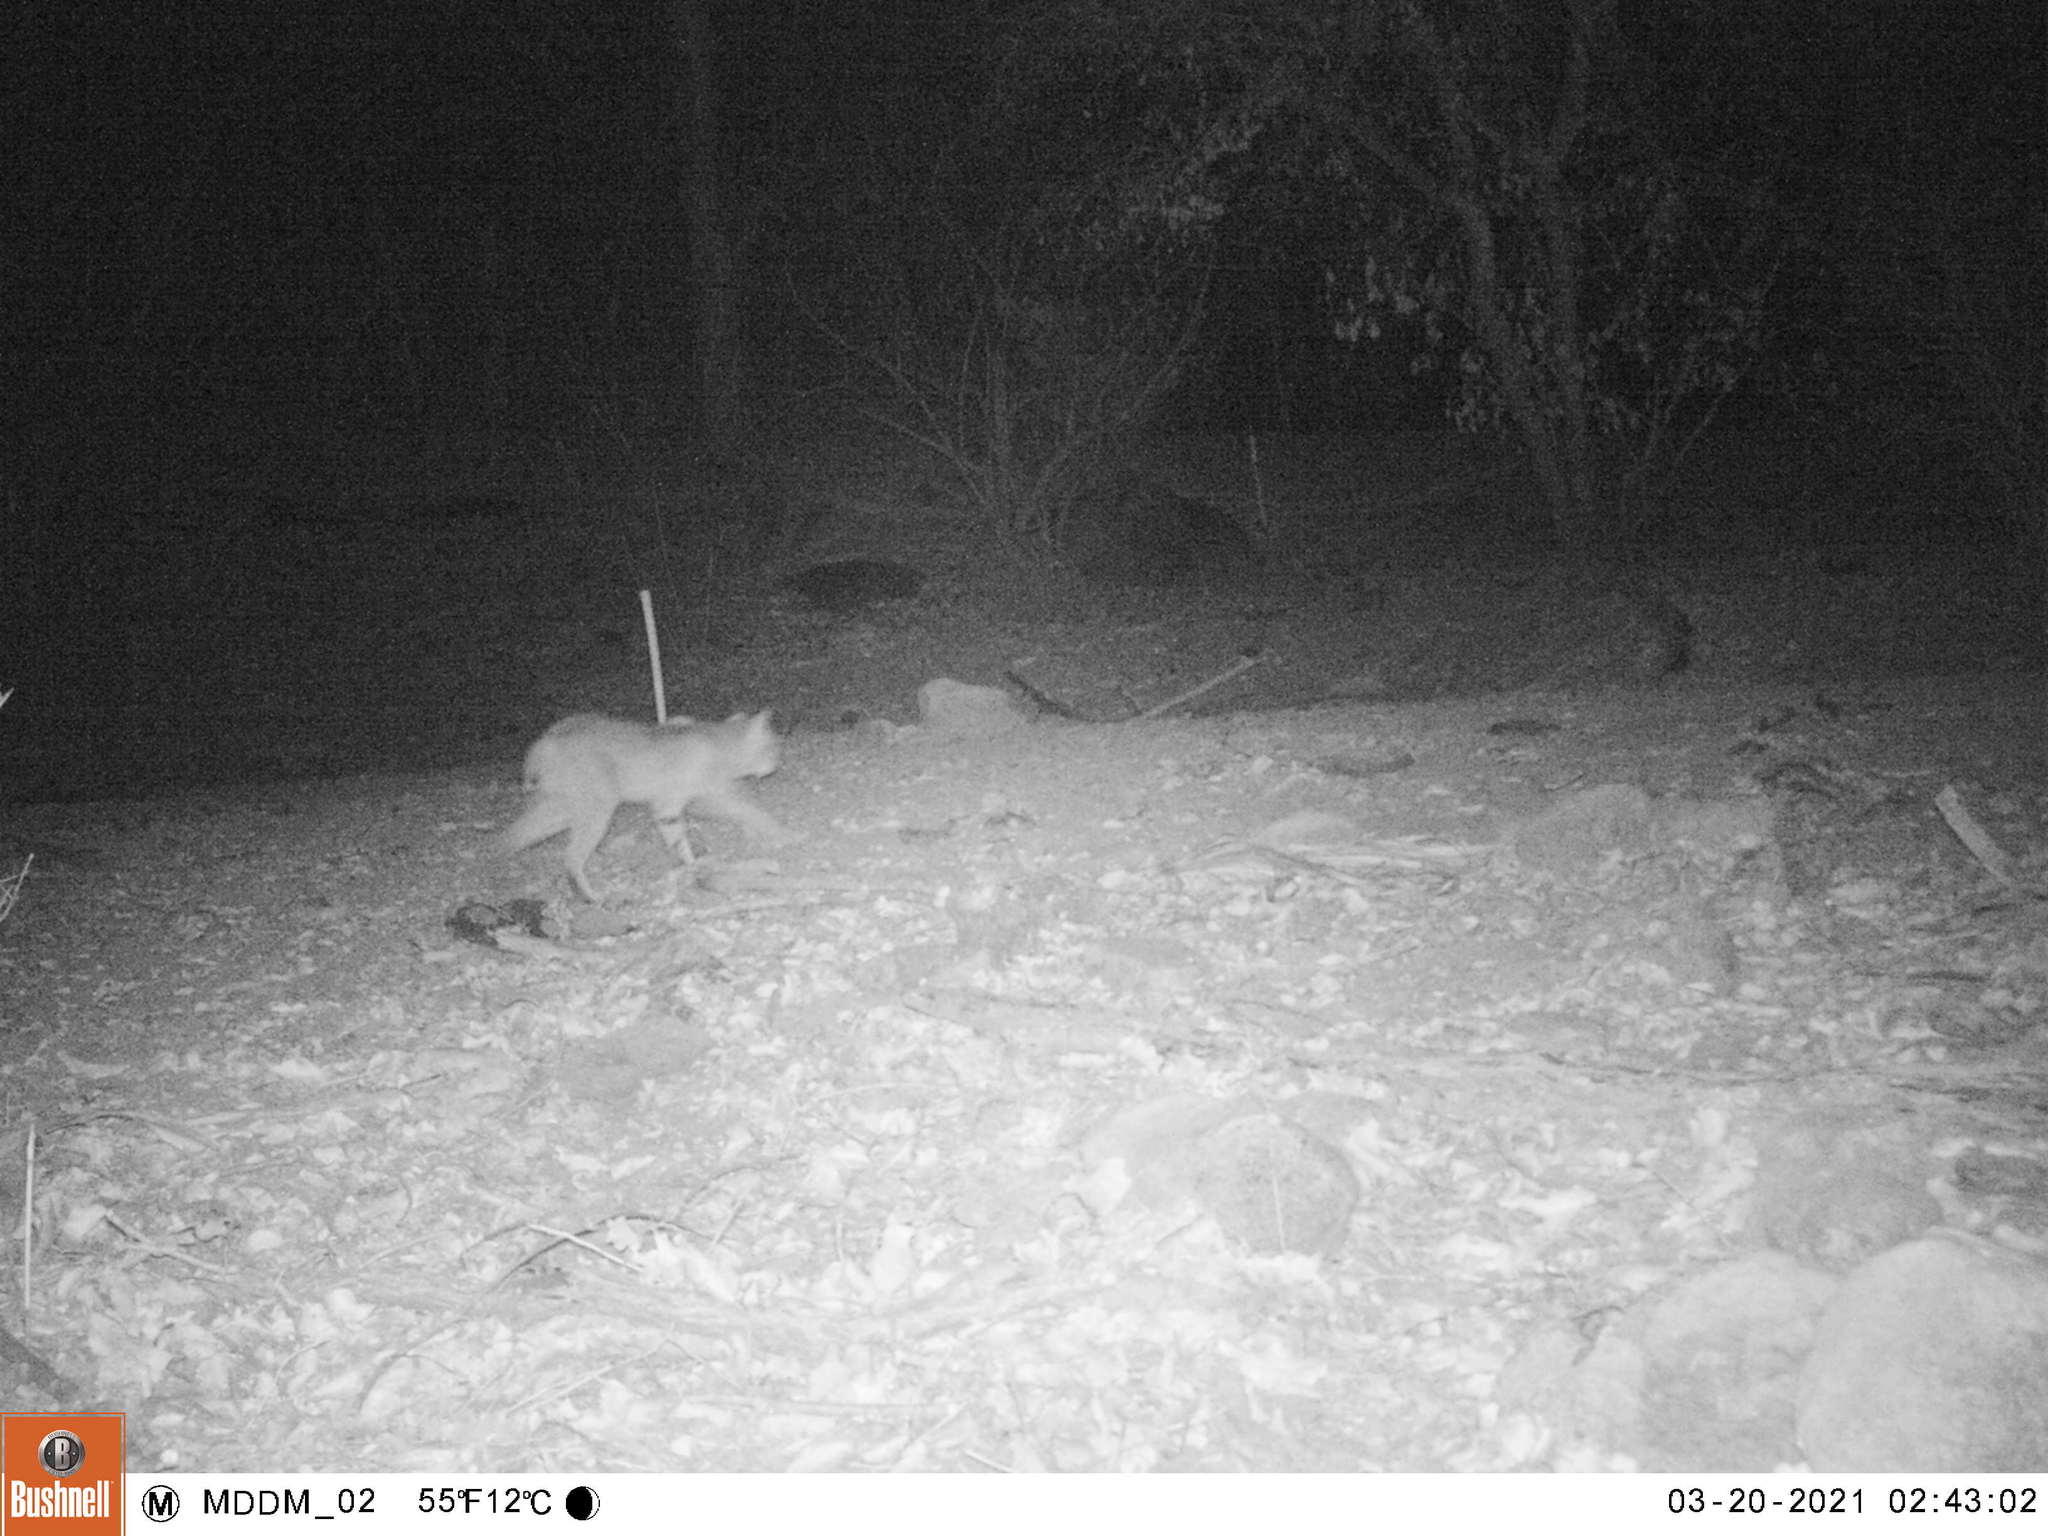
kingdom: Animalia
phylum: Chordata
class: Mammalia
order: Carnivora
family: Felidae
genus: Lynx
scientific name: Lynx rufus
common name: Bobcat
